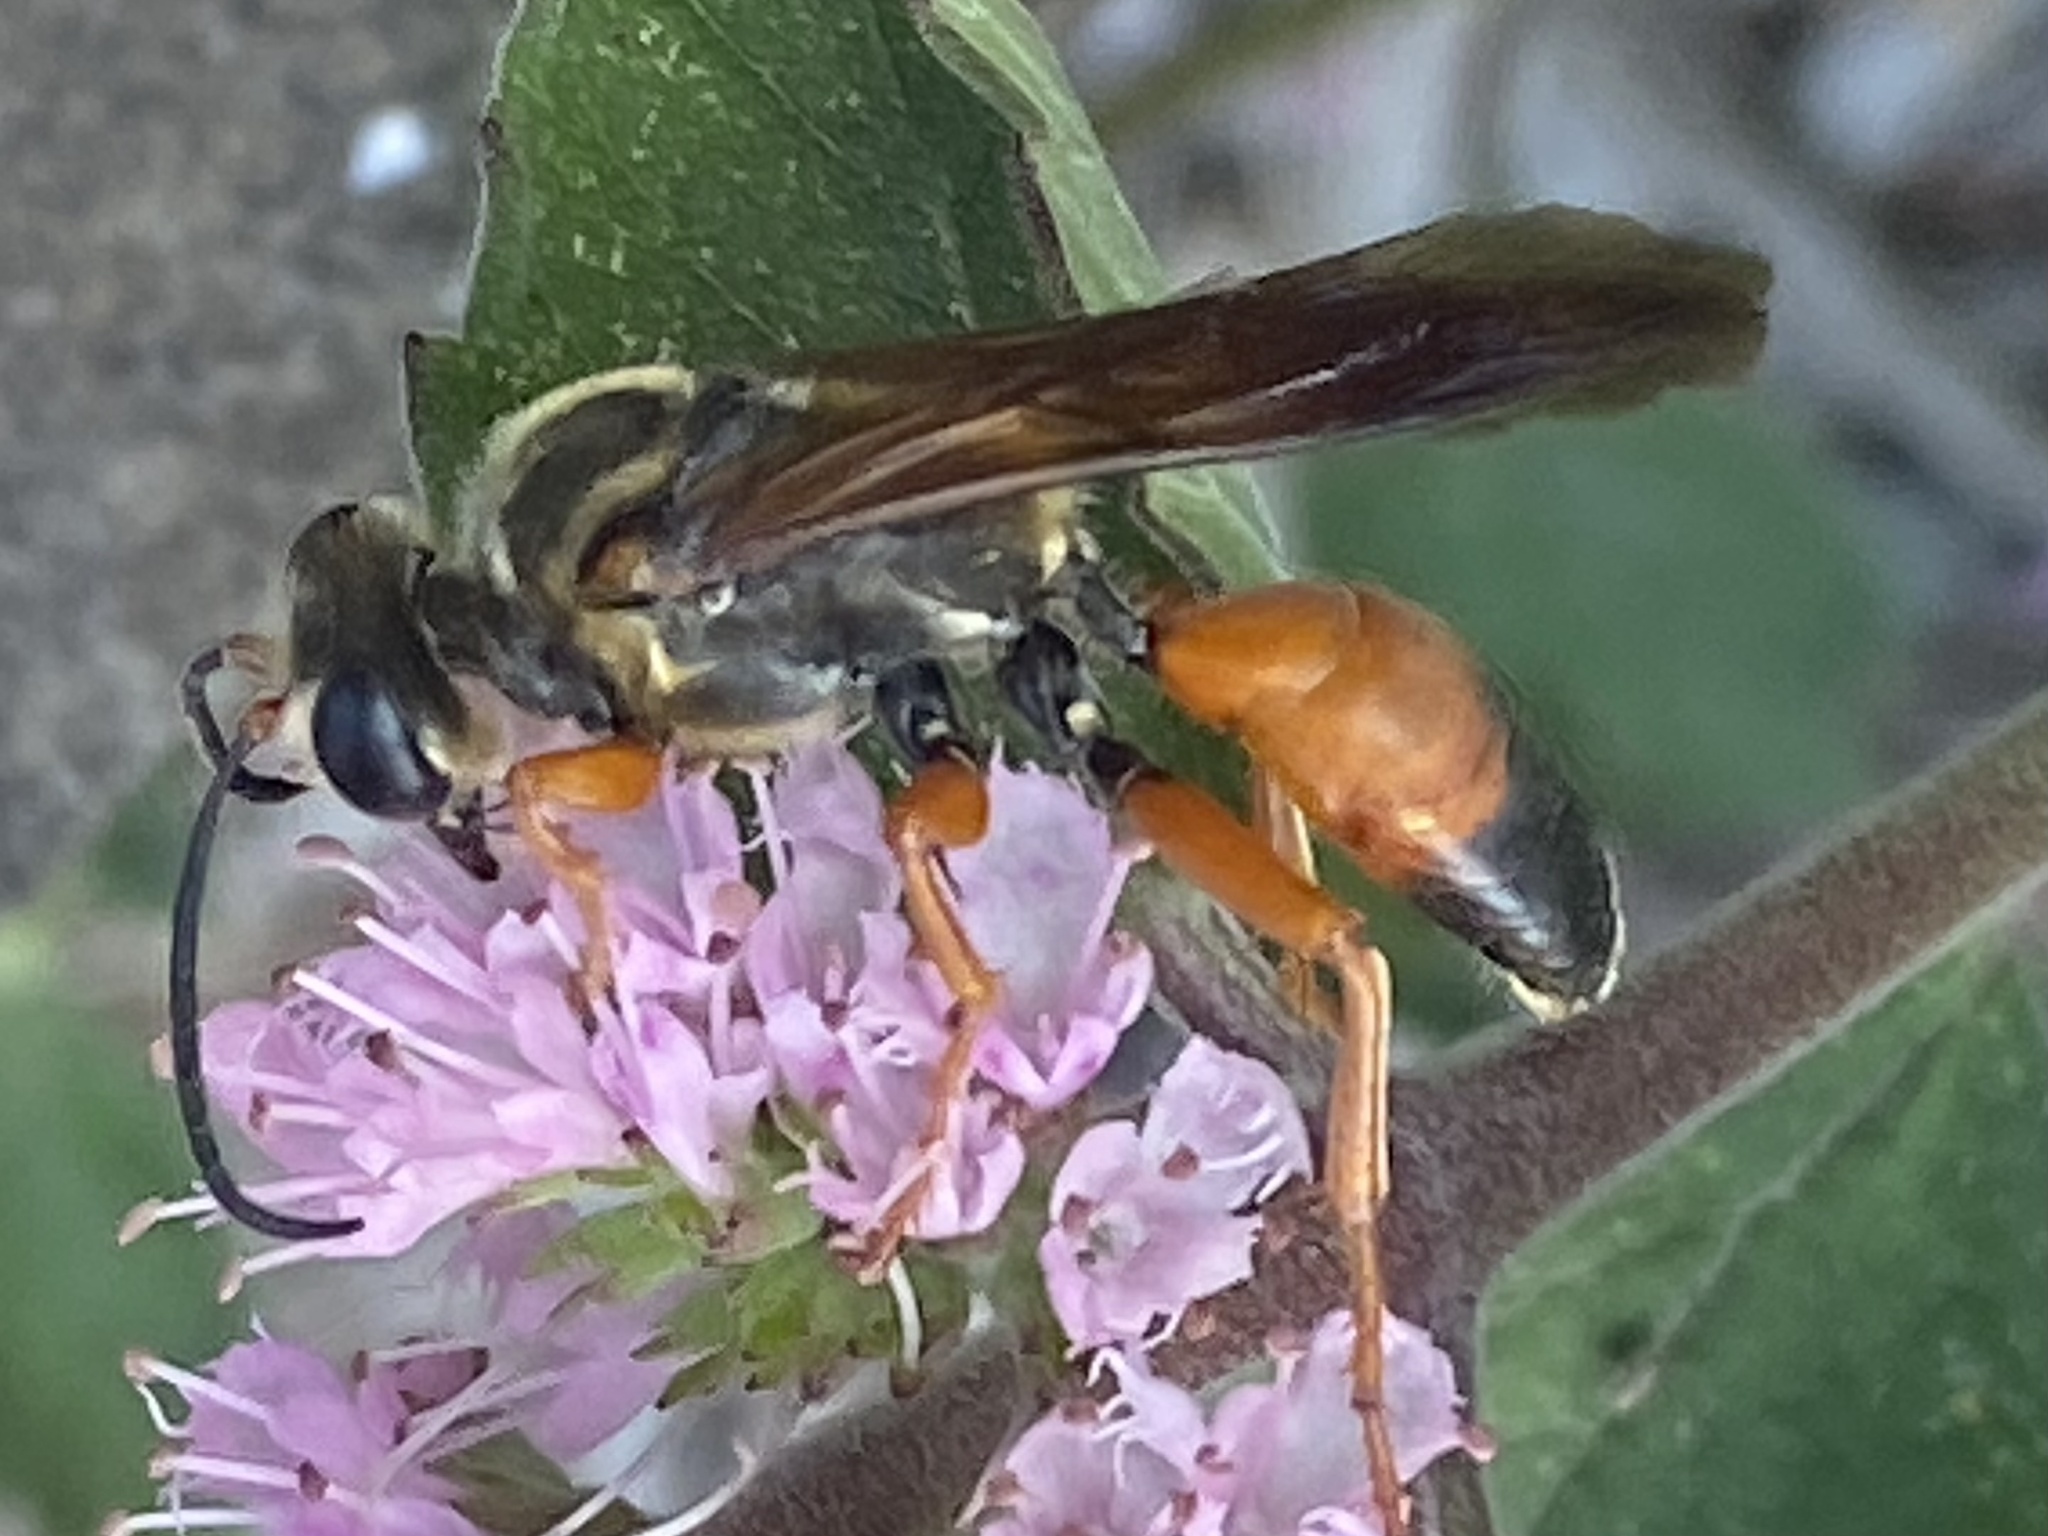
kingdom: Animalia
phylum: Arthropoda
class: Insecta
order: Hymenoptera
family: Sphecidae
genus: Sphex
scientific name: Sphex ichneumoneus
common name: Great golden digger wasp
